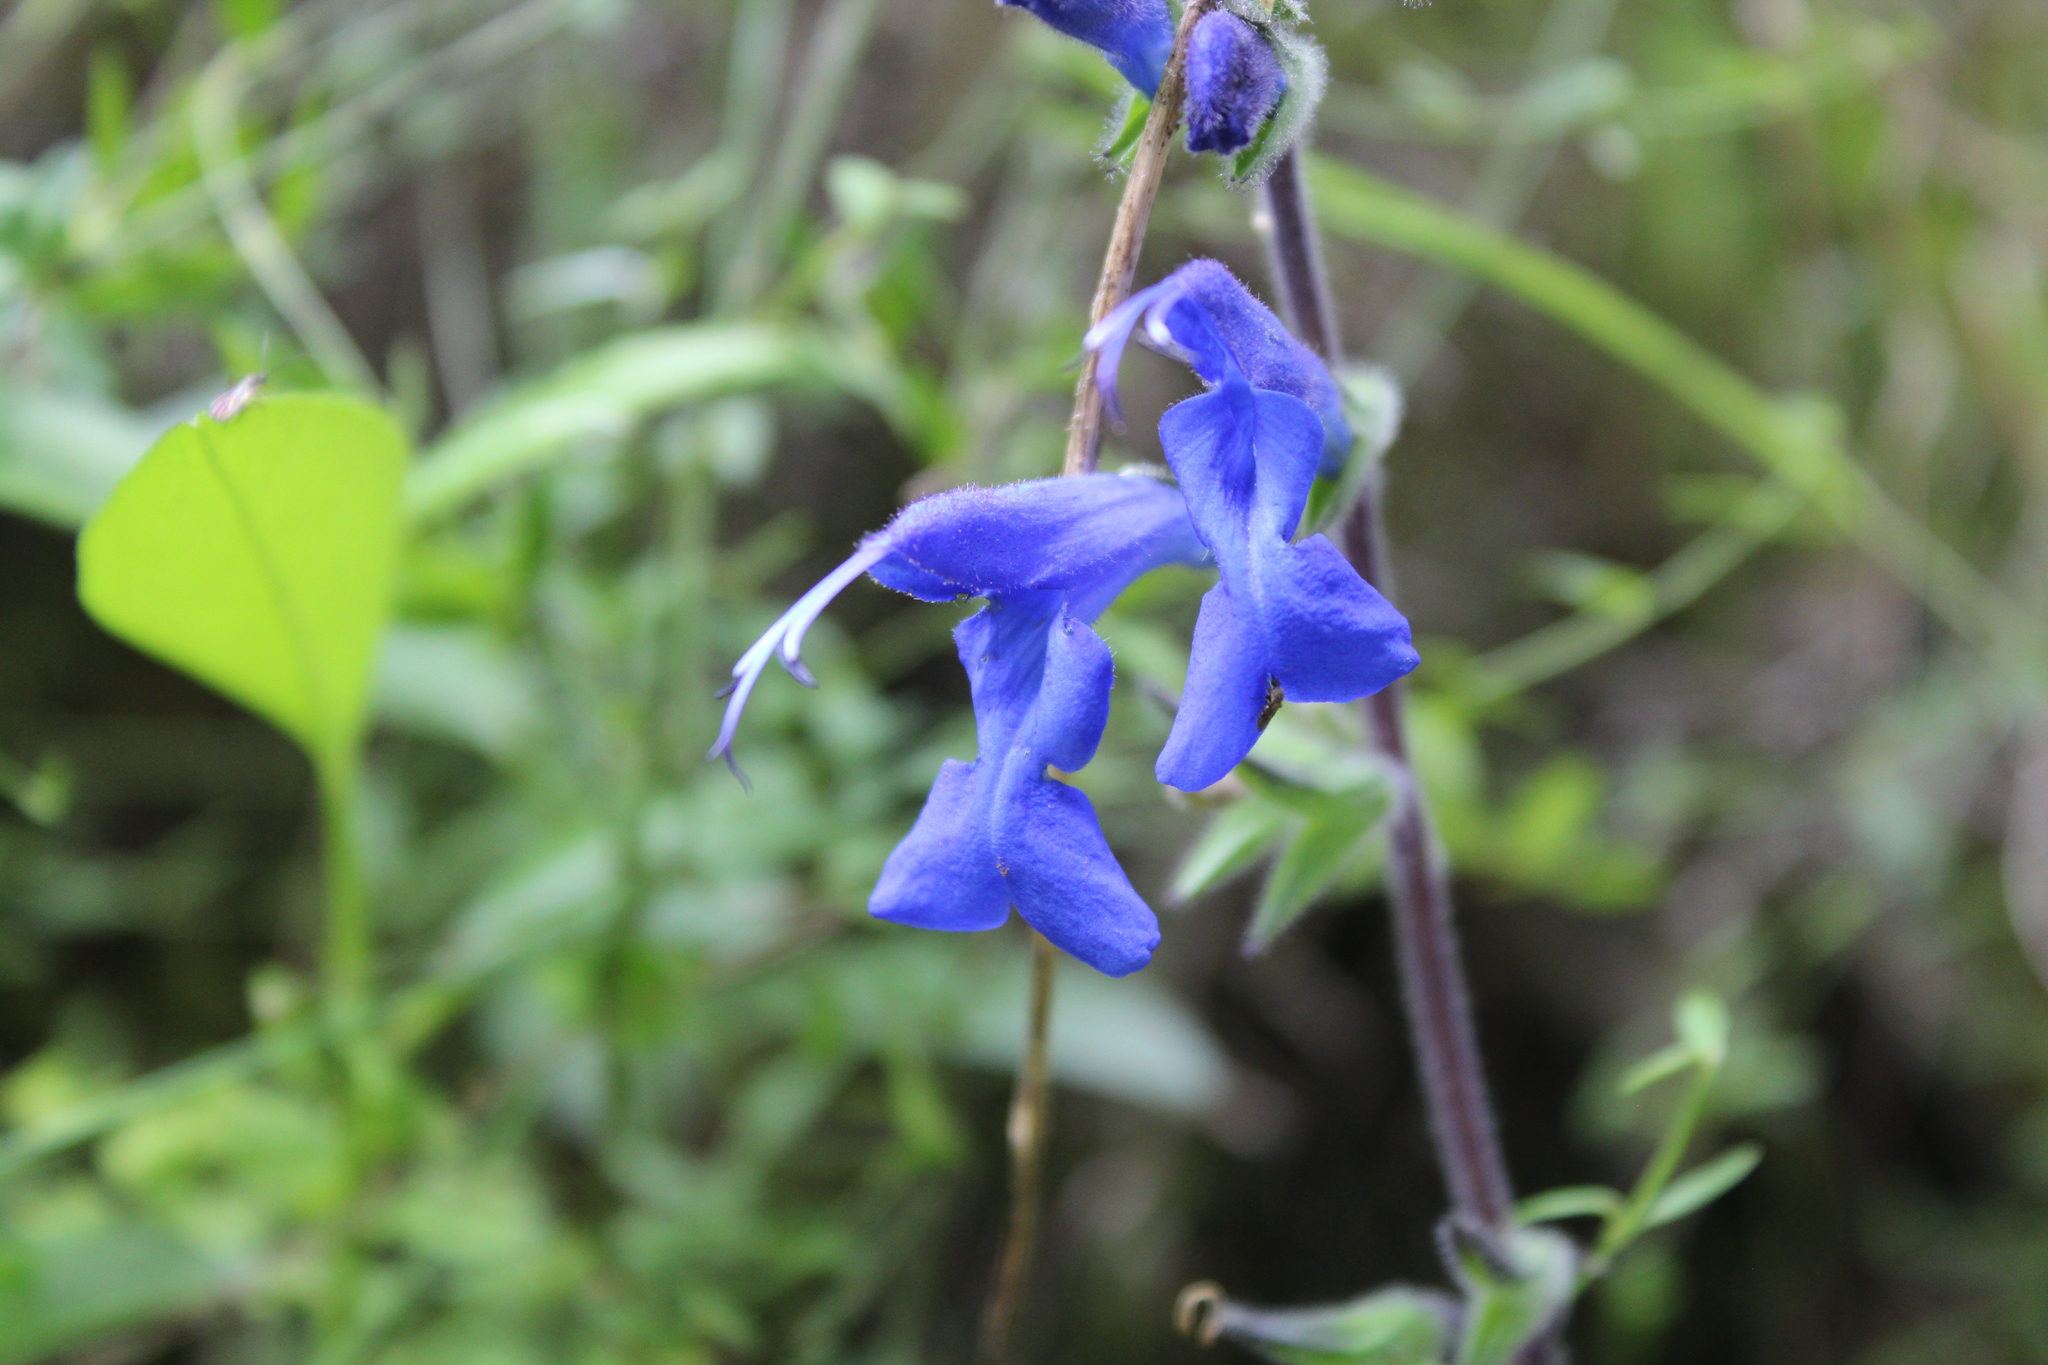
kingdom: Plantae
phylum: Tracheophyta
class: Magnoliopsida
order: Lamiales
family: Lamiaceae
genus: Salvia
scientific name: Salvia sagittata
